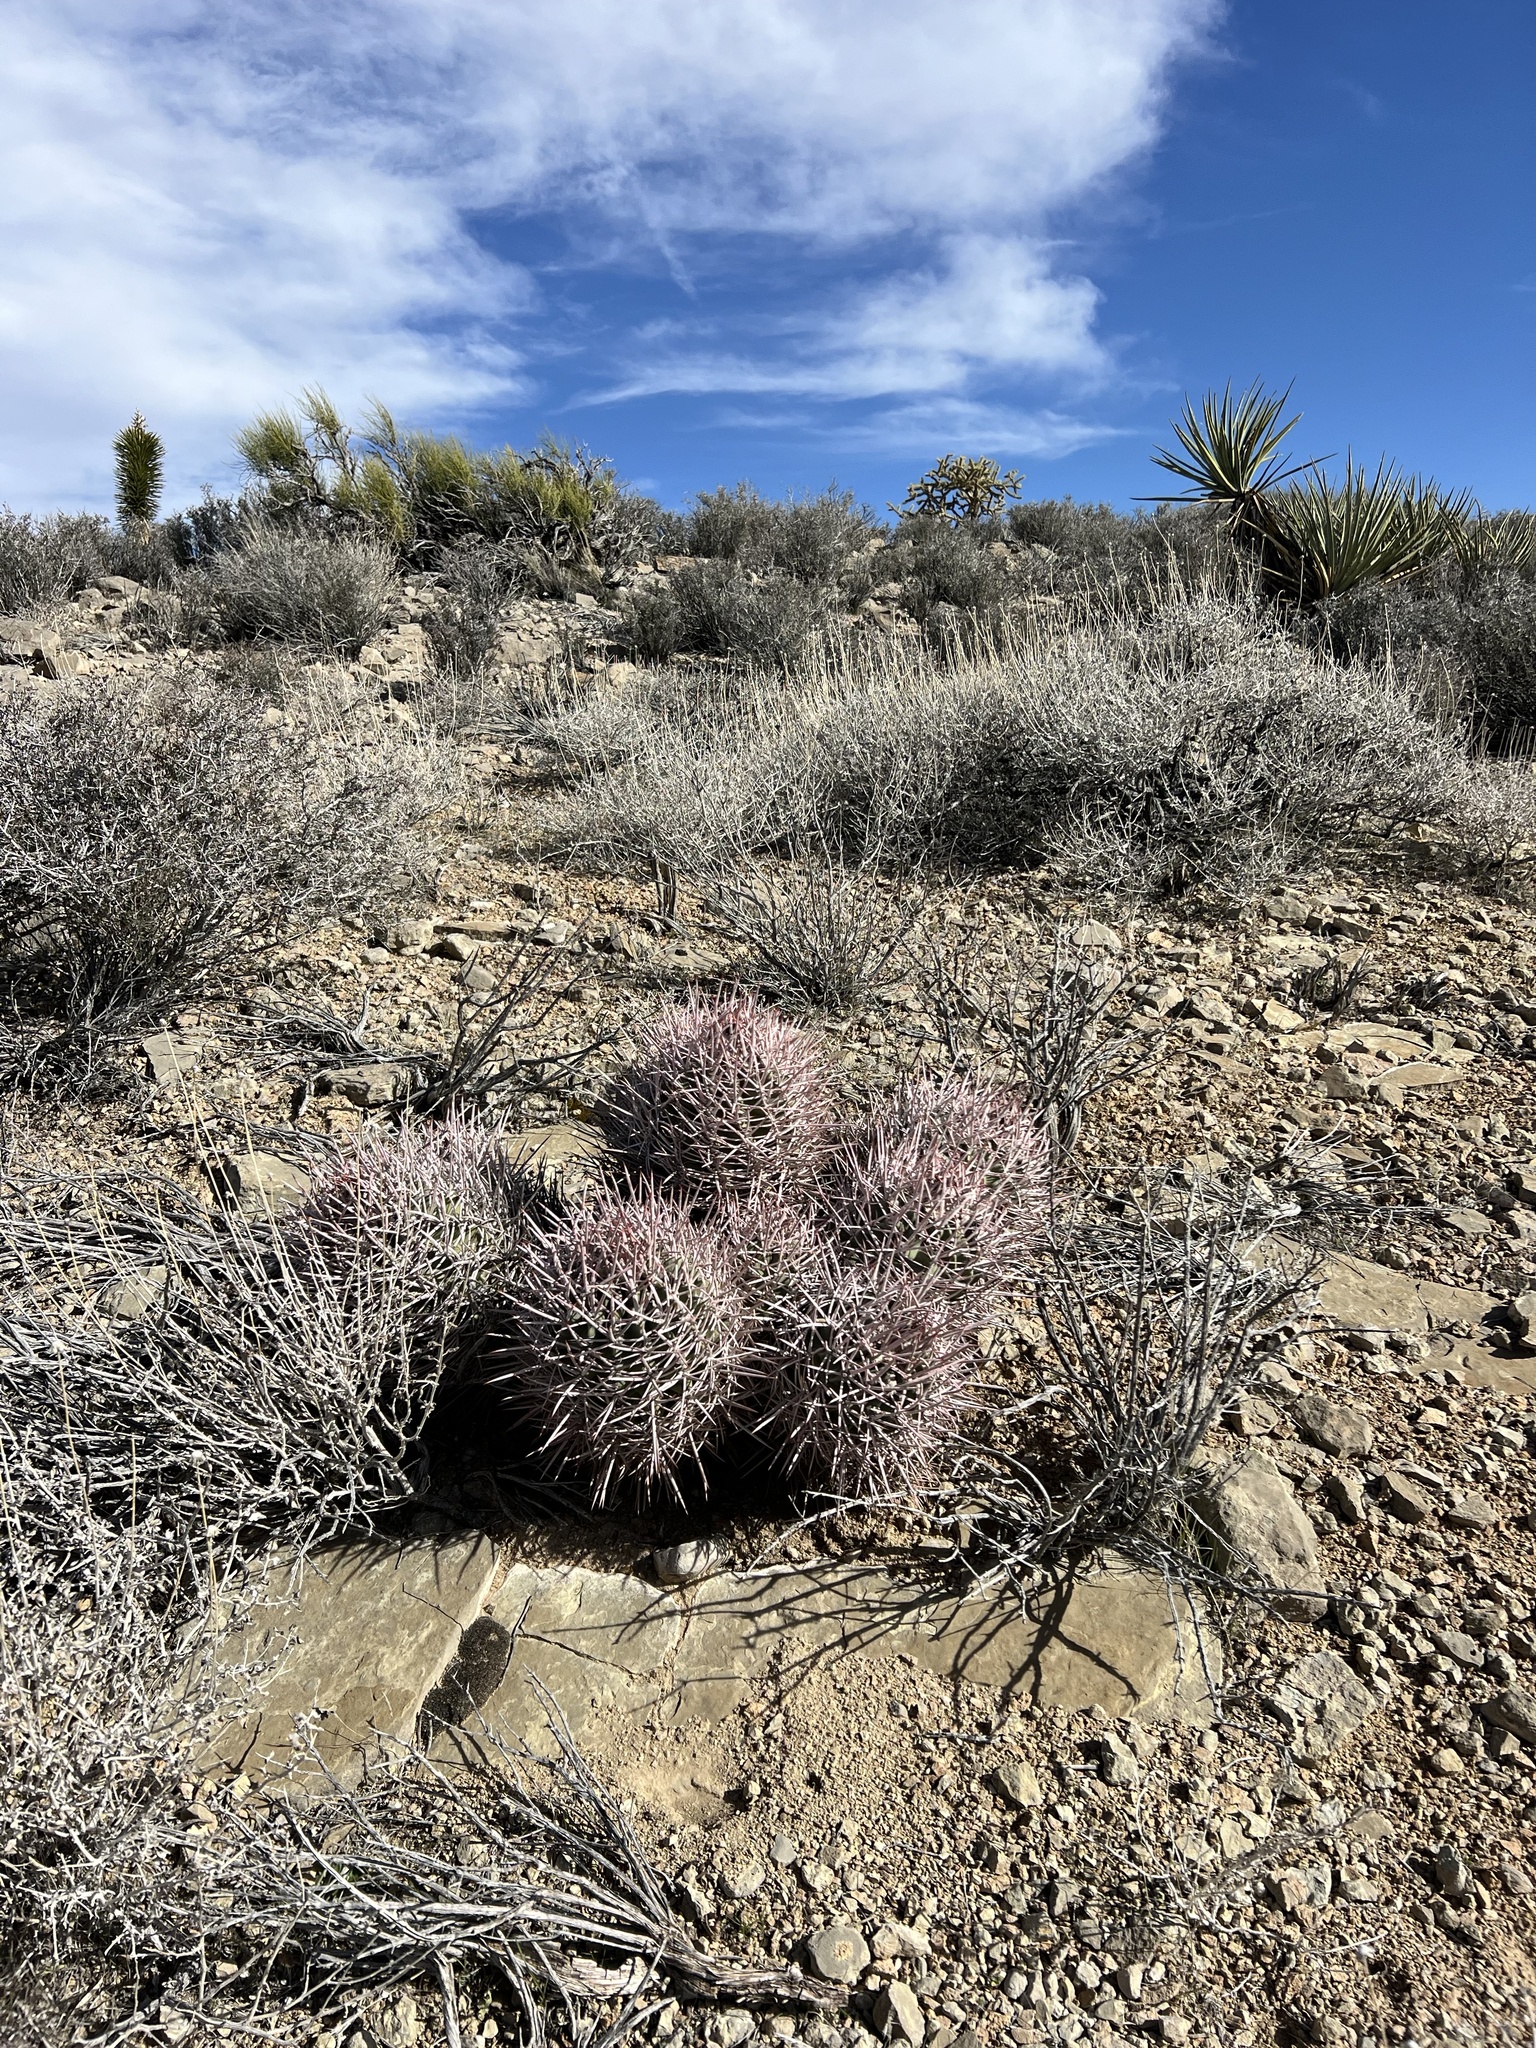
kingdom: Plantae
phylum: Tracheophyta
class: Magnoliopsida
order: Caryophyllales
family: Cactaceae
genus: Echinocactus
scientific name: Echinocactus polycephalus
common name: Cottontop cactus
